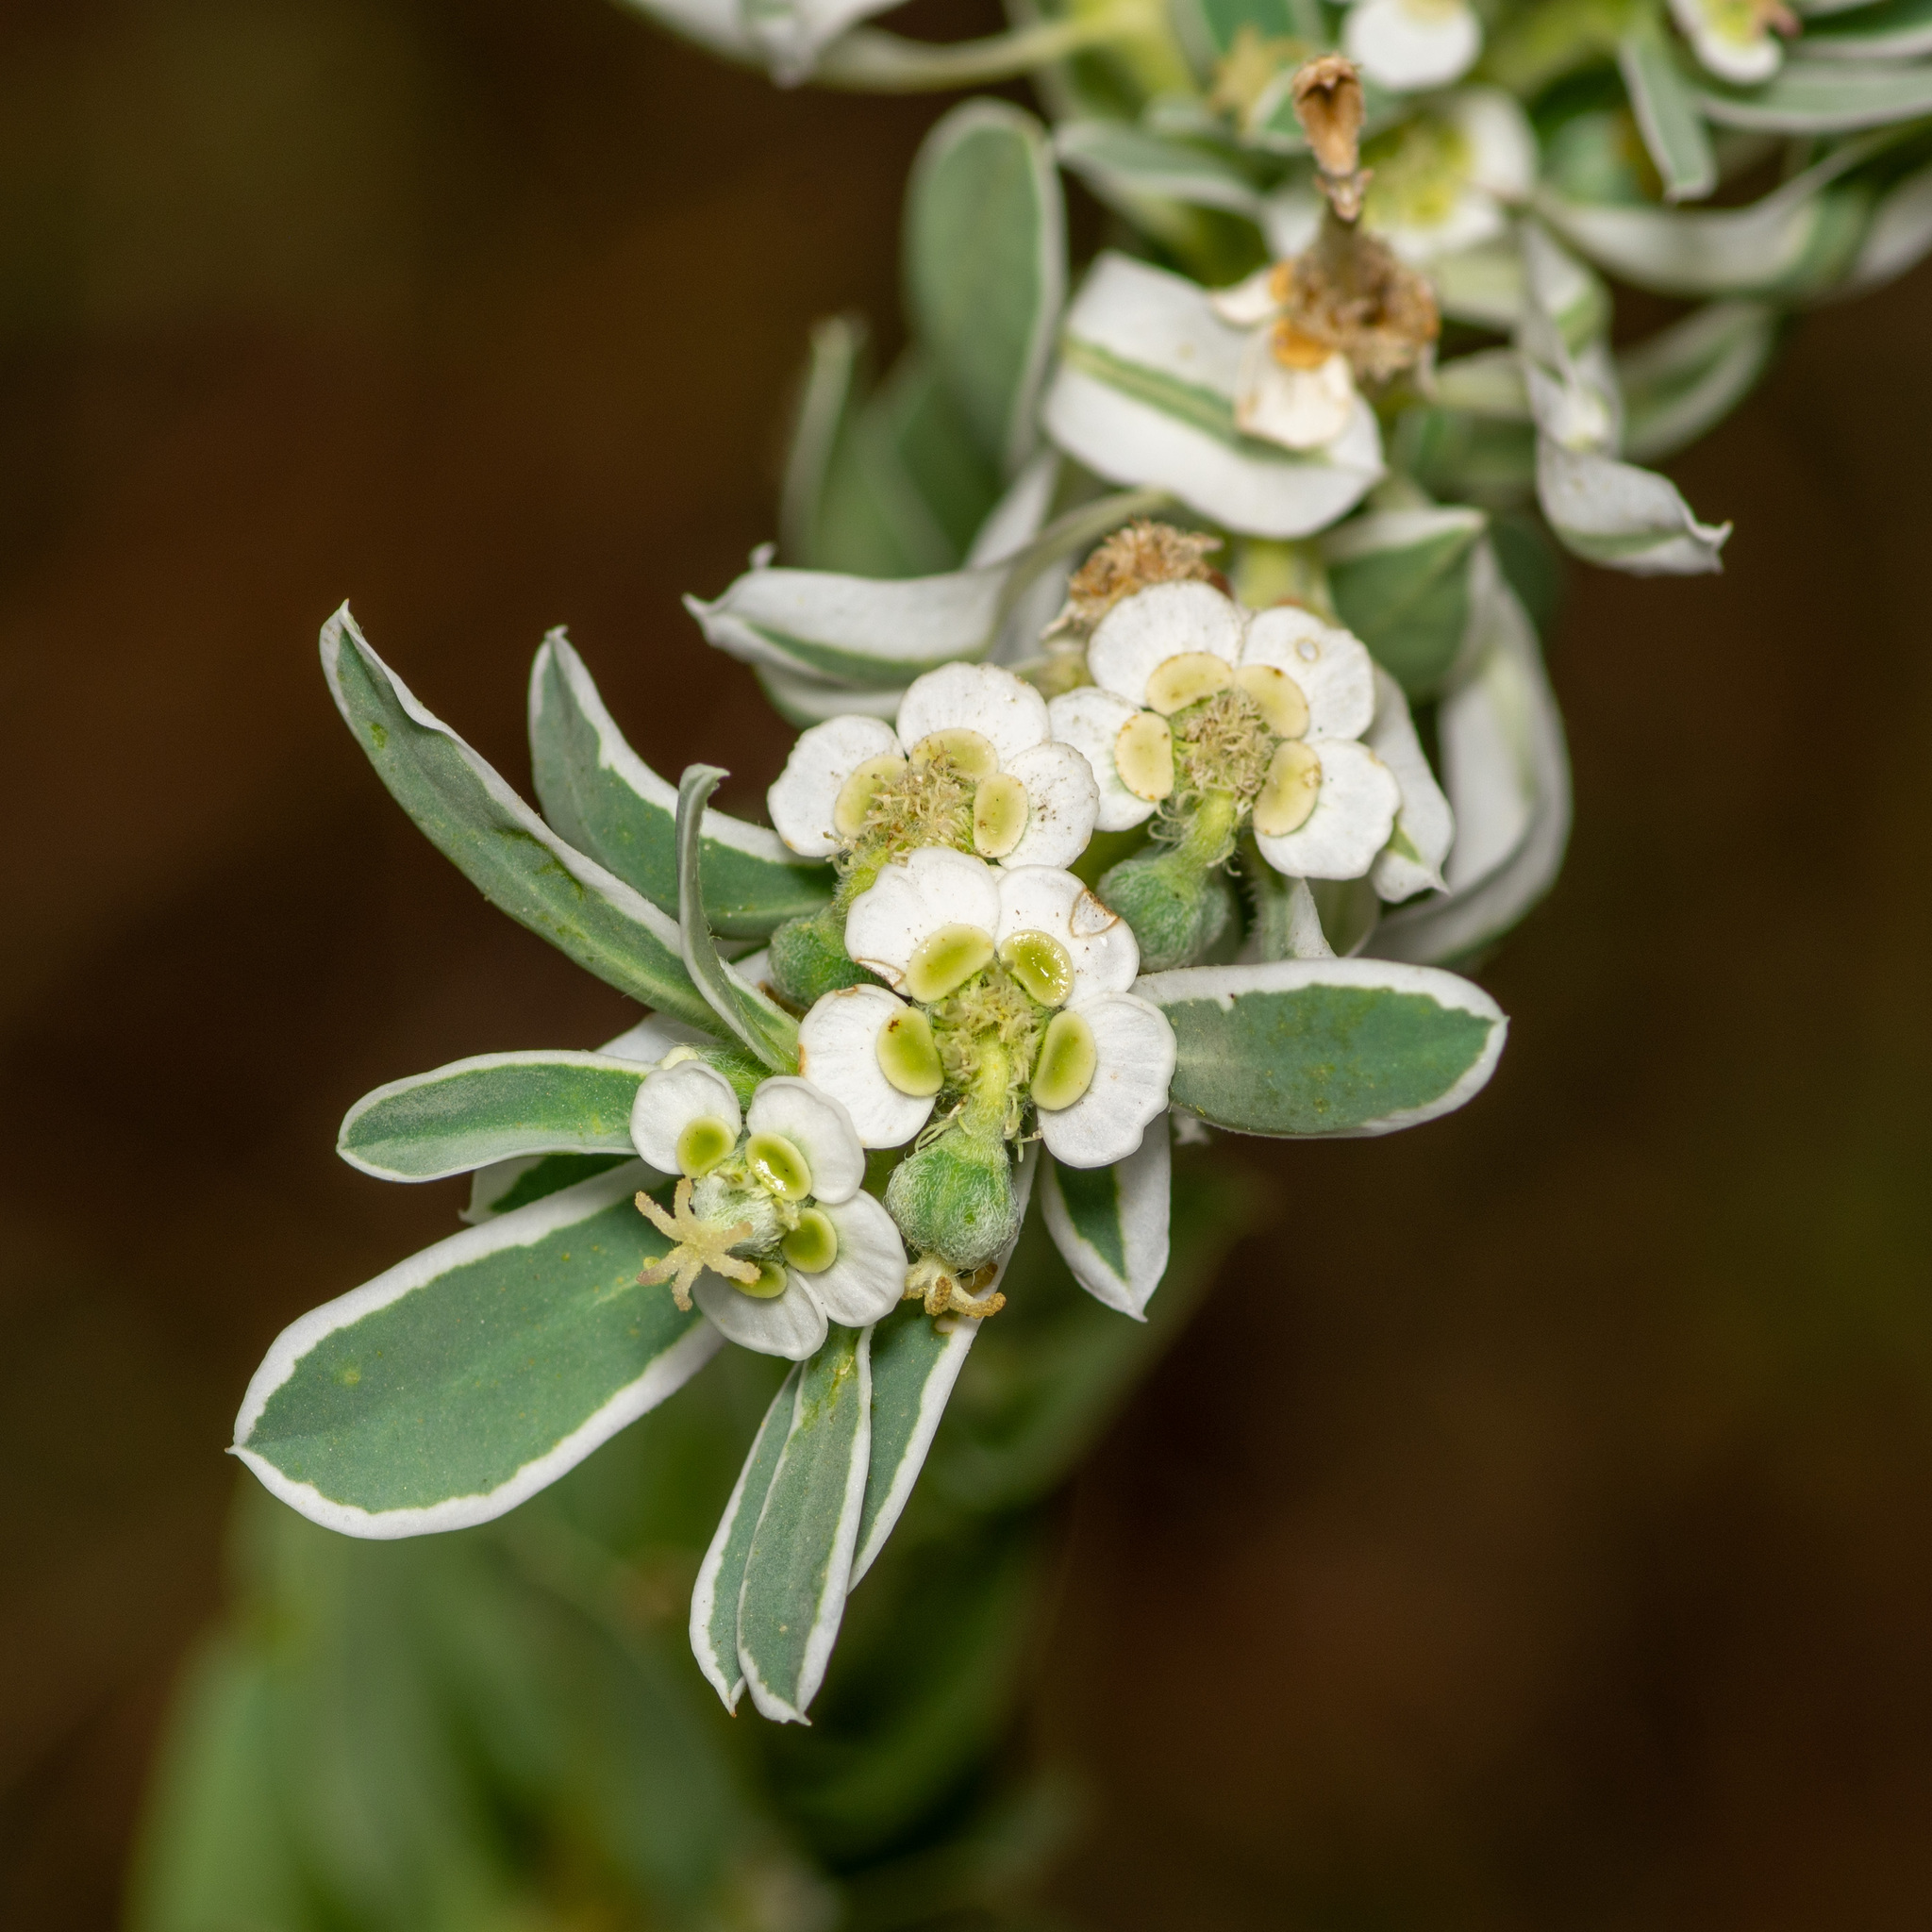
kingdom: Plantae
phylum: Tracheophyta
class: Magnoliopsida
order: Malpighiales
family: Euphorbiaceae
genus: Euphorbia
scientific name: Euphorbia marginata
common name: Ghostweed
